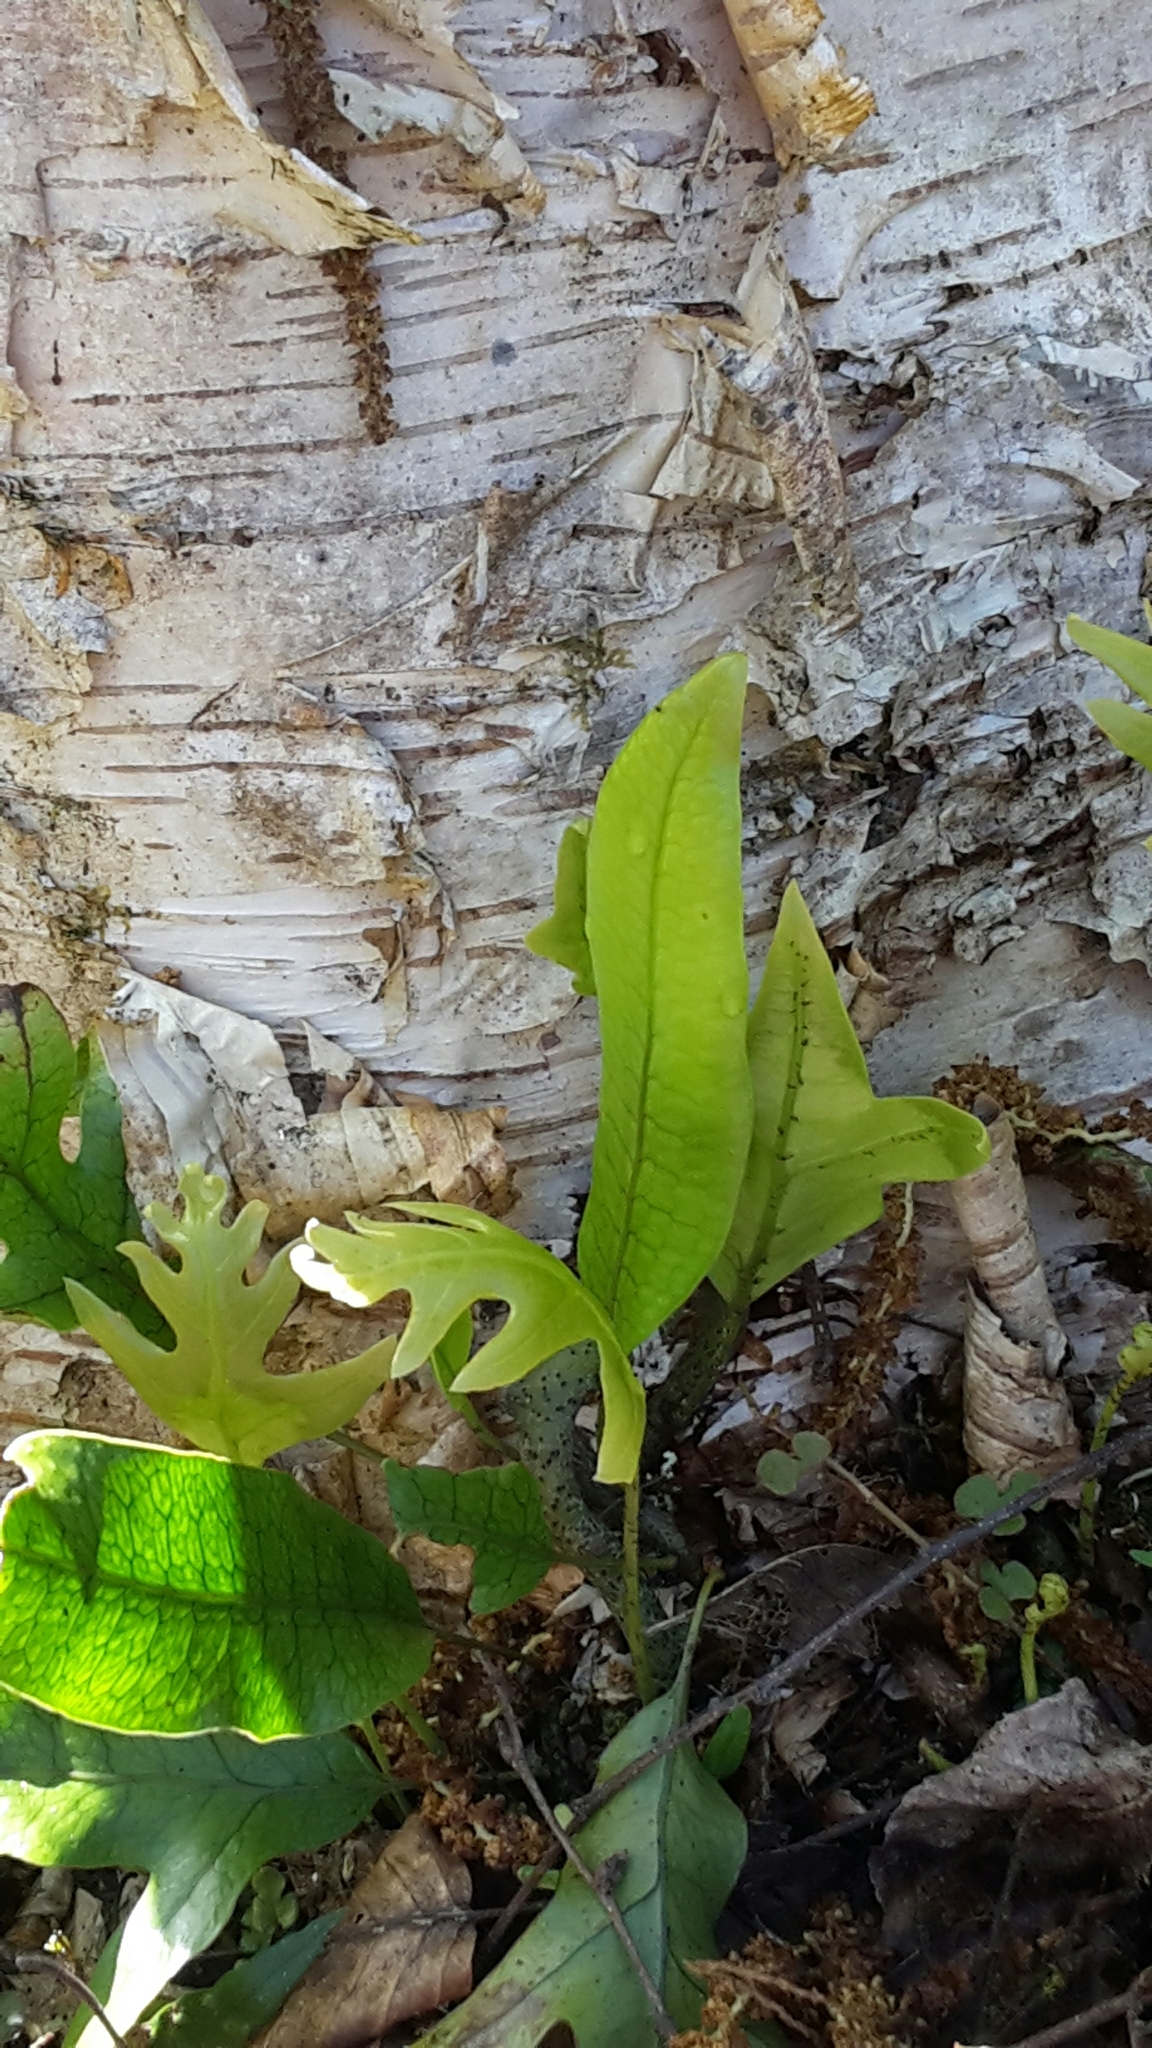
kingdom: Plantae
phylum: Tracheophyta
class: Polypodiopsida
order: Polypodiales
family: Polypodiaceae
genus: Lecanopteris
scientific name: Lecanopteris pustulata
